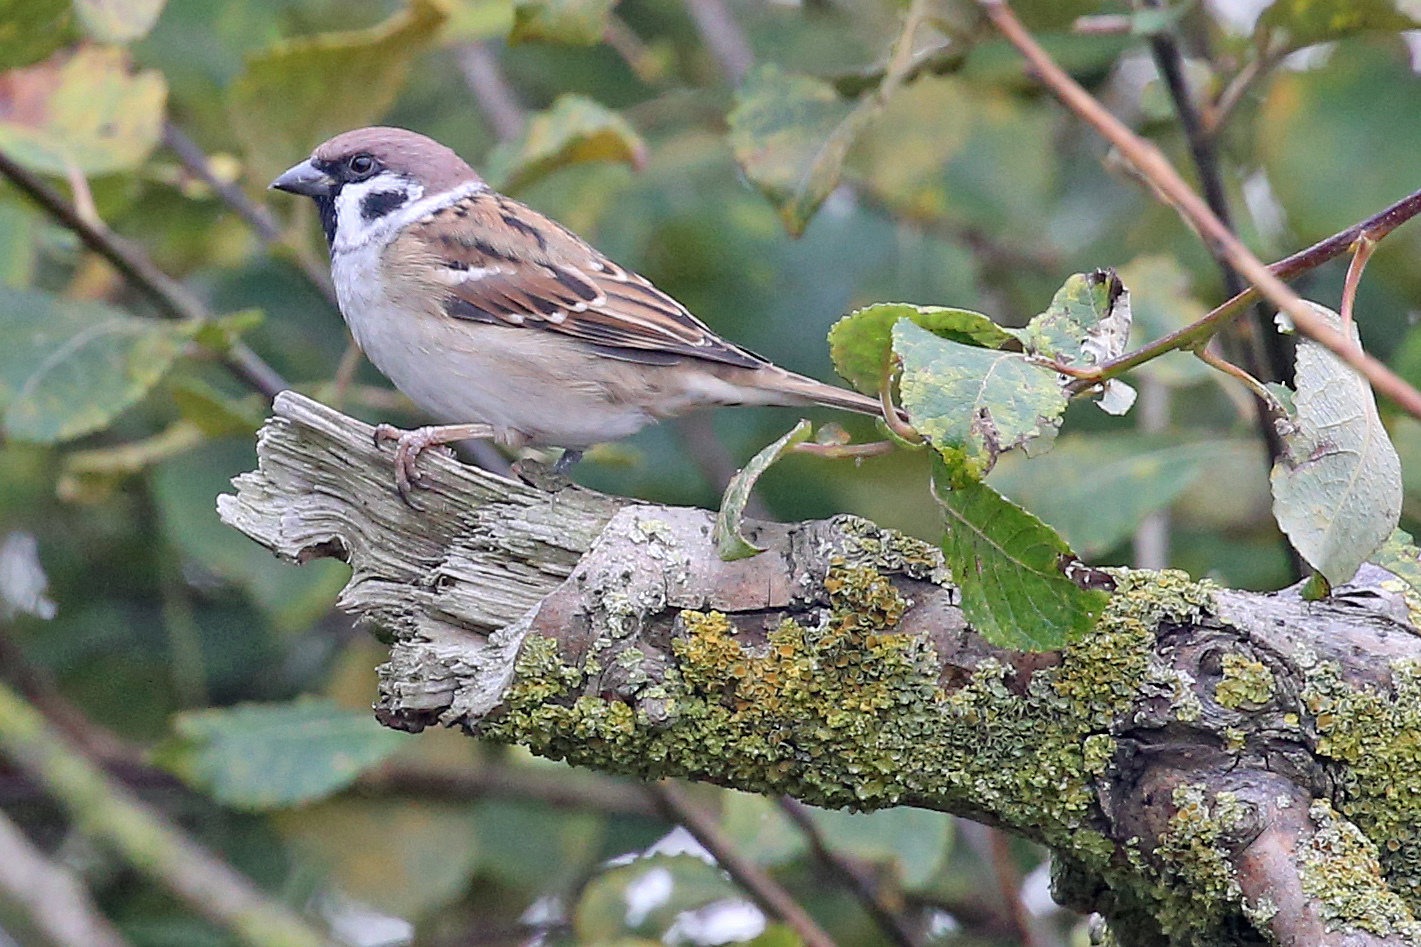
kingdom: Animalia
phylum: Chordata
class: Aves
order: Passeriformes
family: Passeridae
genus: Passer
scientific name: Passer montanus
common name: Eurasian tree sparrow
